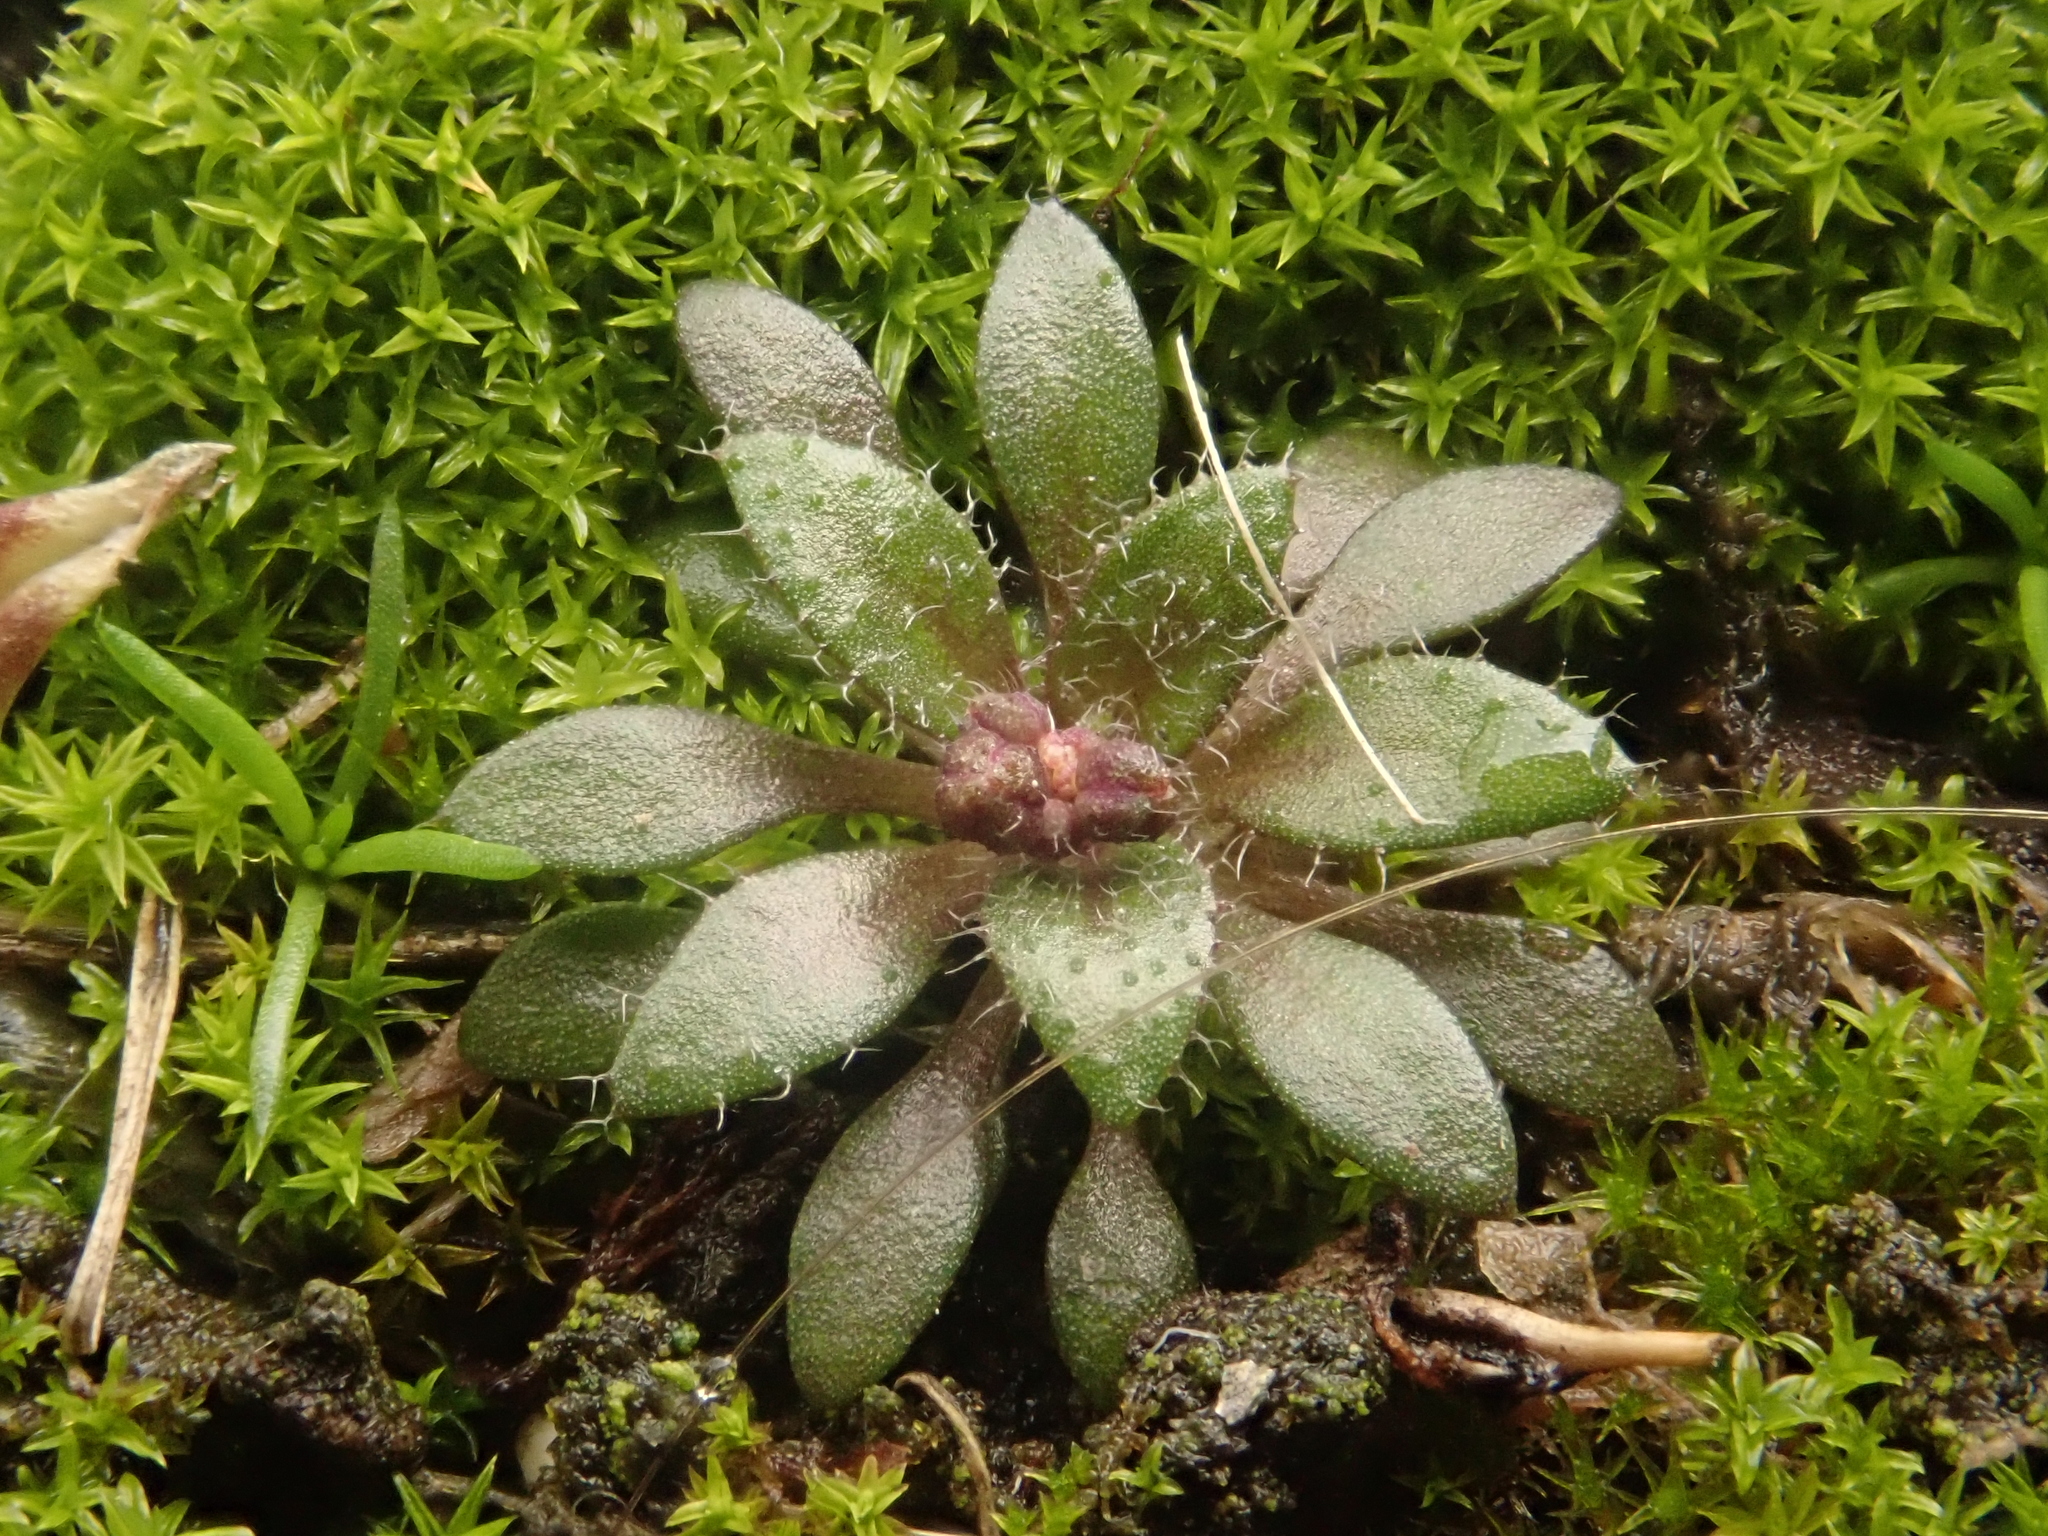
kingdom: Plantae
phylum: Tracheophyta
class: Magnoliopsida
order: Brassicales
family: Brassicaceae
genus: Draba
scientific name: Draba verna
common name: Spring draba
